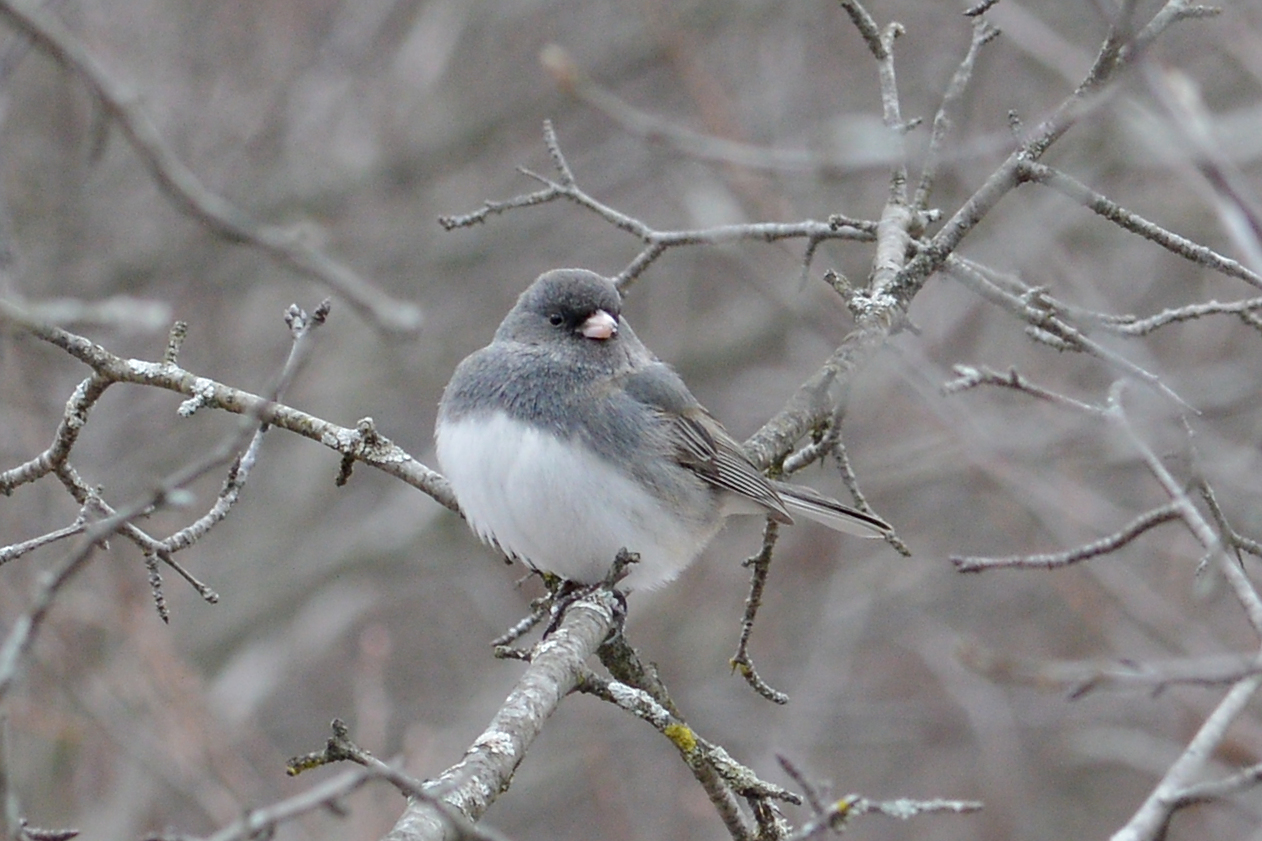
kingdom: Animalia
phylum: Chordata
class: Aves
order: Passeriformes
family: Passerellidae
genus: Junco
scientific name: Junco hyemalis
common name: Dark-eyed junco
